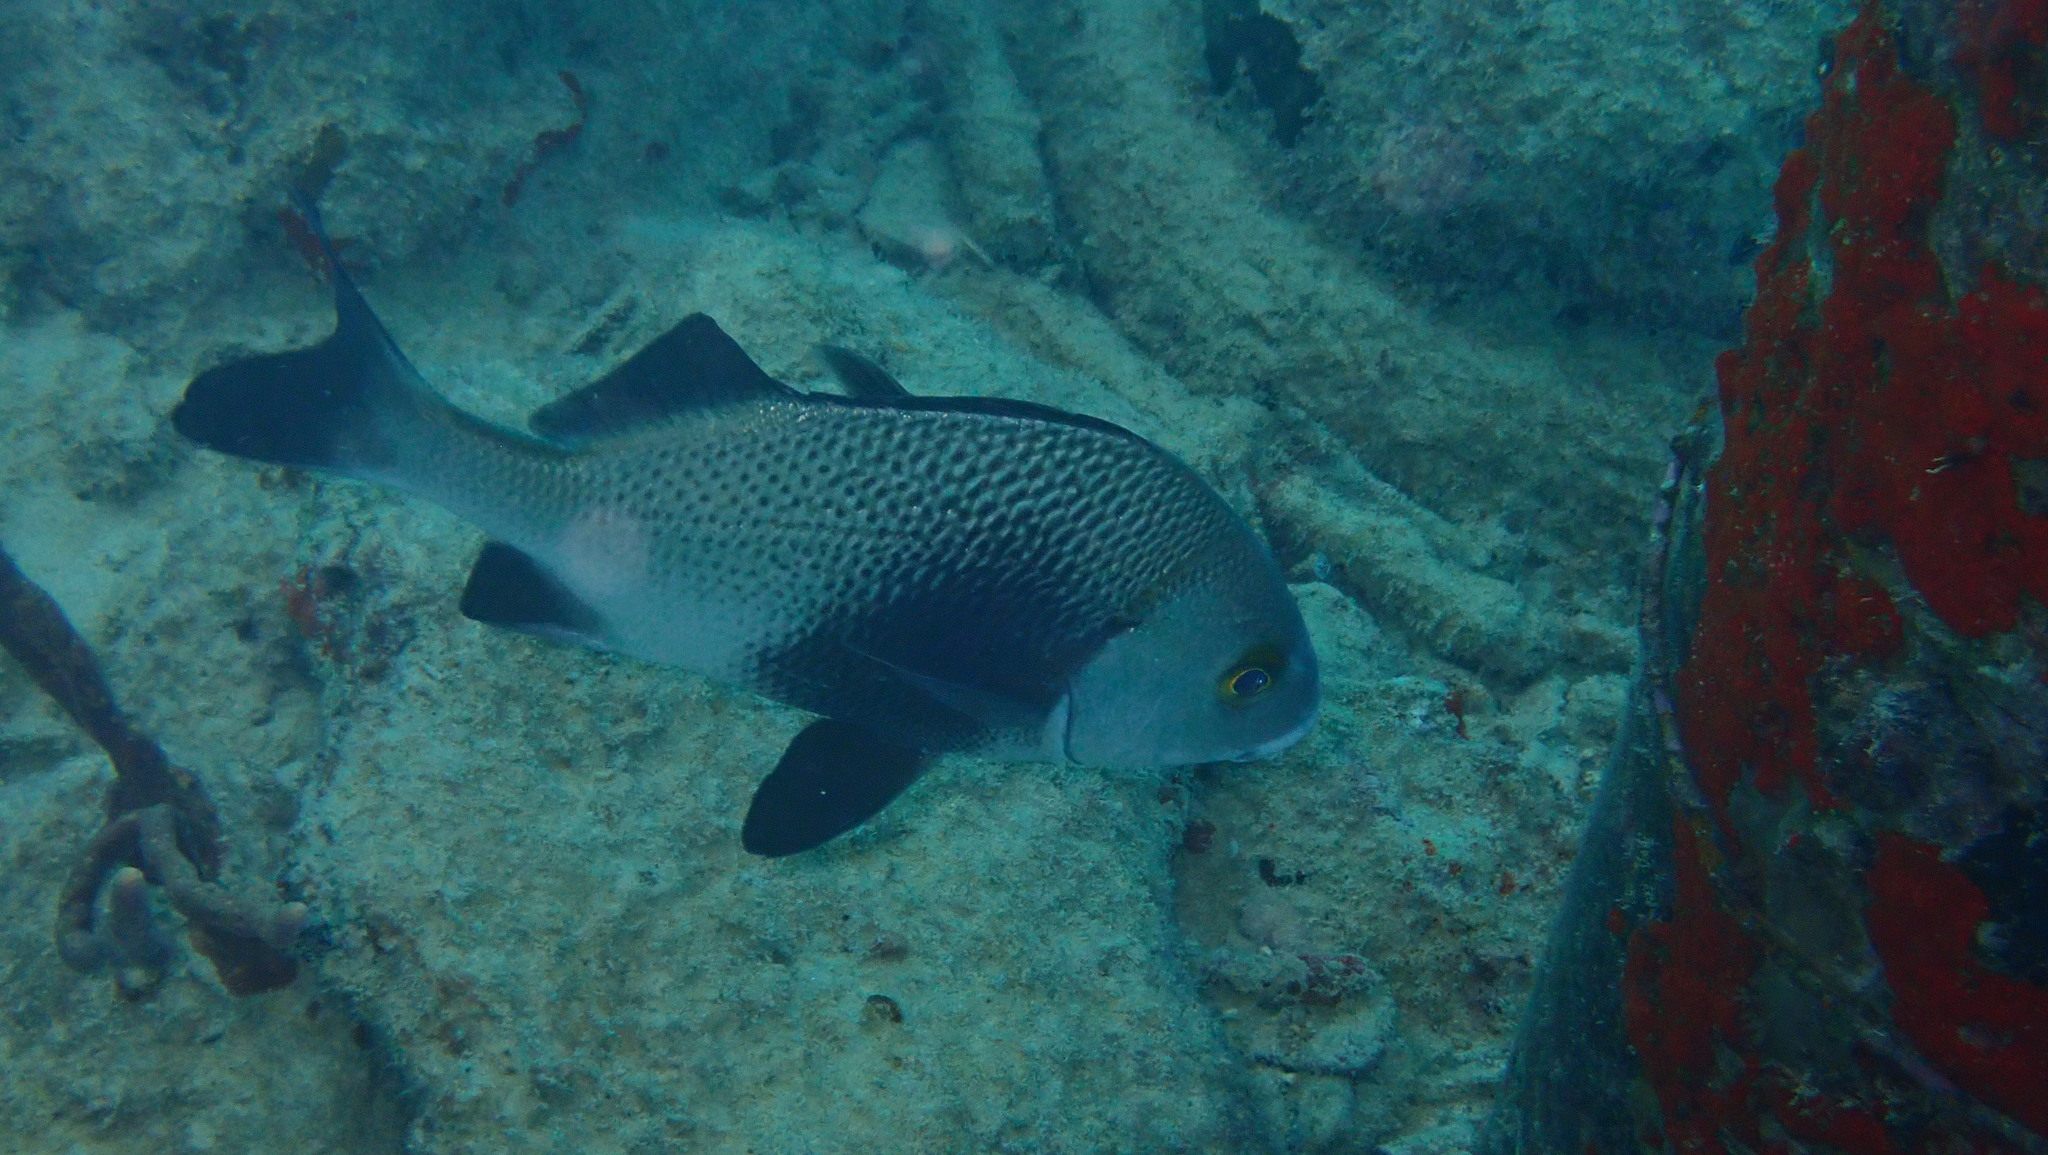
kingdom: Animalia
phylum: Chordata
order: Perciformes
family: Haemulidae
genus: Anisotremus
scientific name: Anisotremus surinamensis
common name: Black margate
